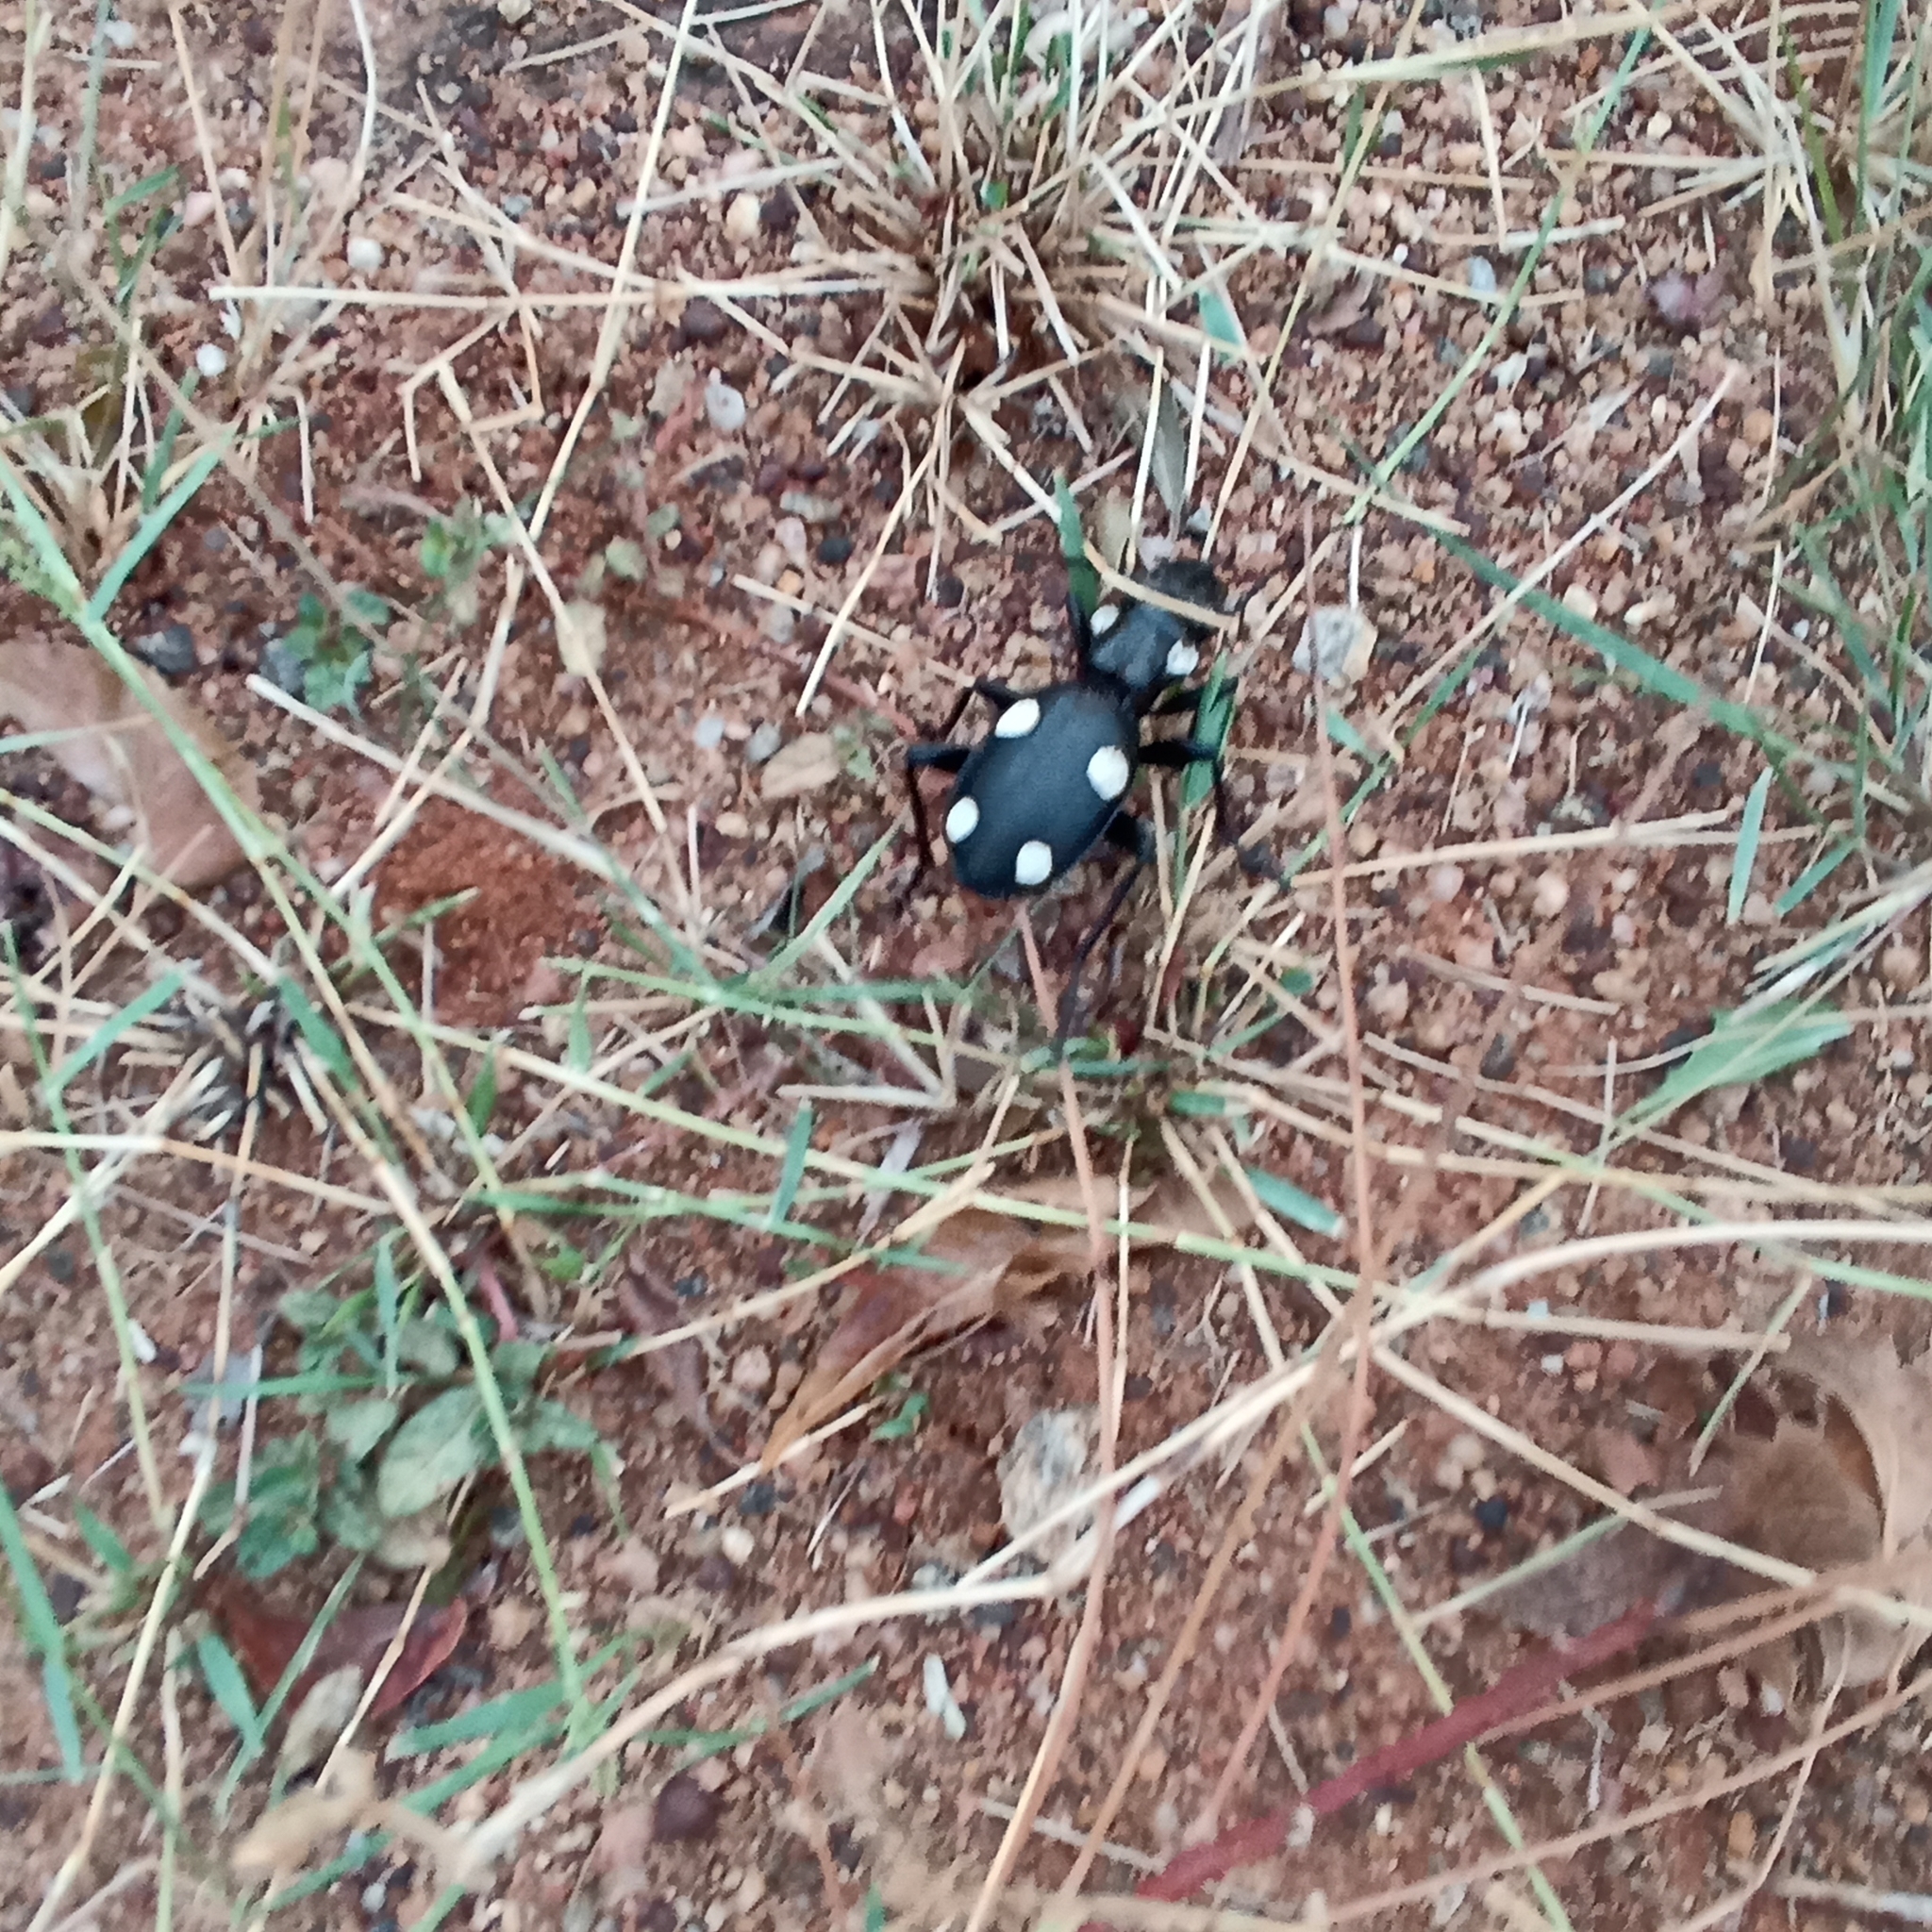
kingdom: Animalia
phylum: Arthropoda
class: Insecta
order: Coleoptera
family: Carabidae
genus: Anthia
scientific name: Anthia sexguttata
